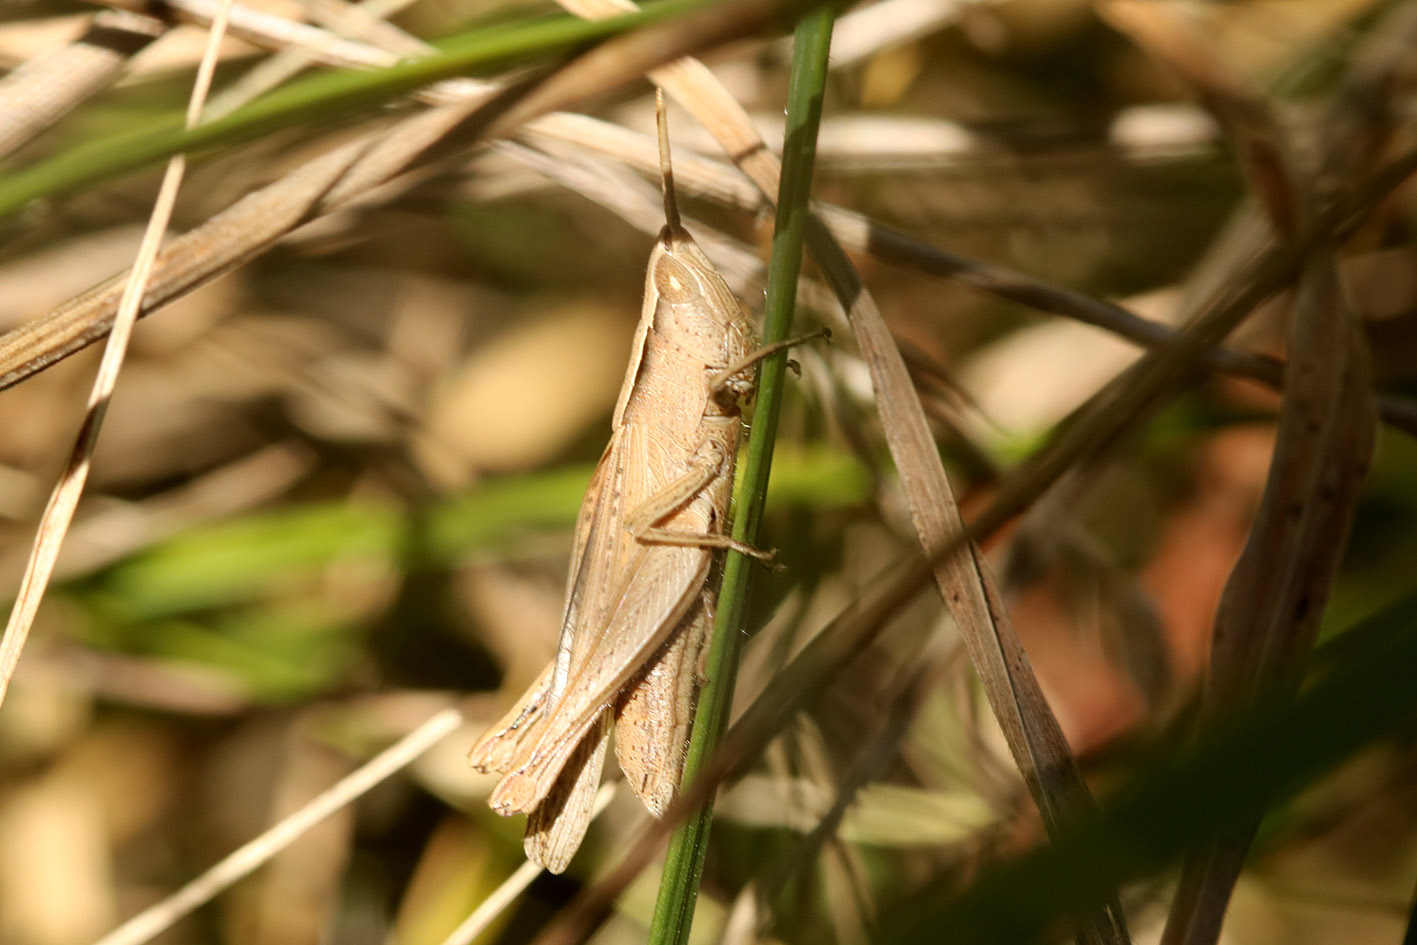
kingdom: Animalia
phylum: Arthropoda
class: Insecta
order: Orthoptera
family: Acrididae
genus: Laplatacris
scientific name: Laplatacris dispar
